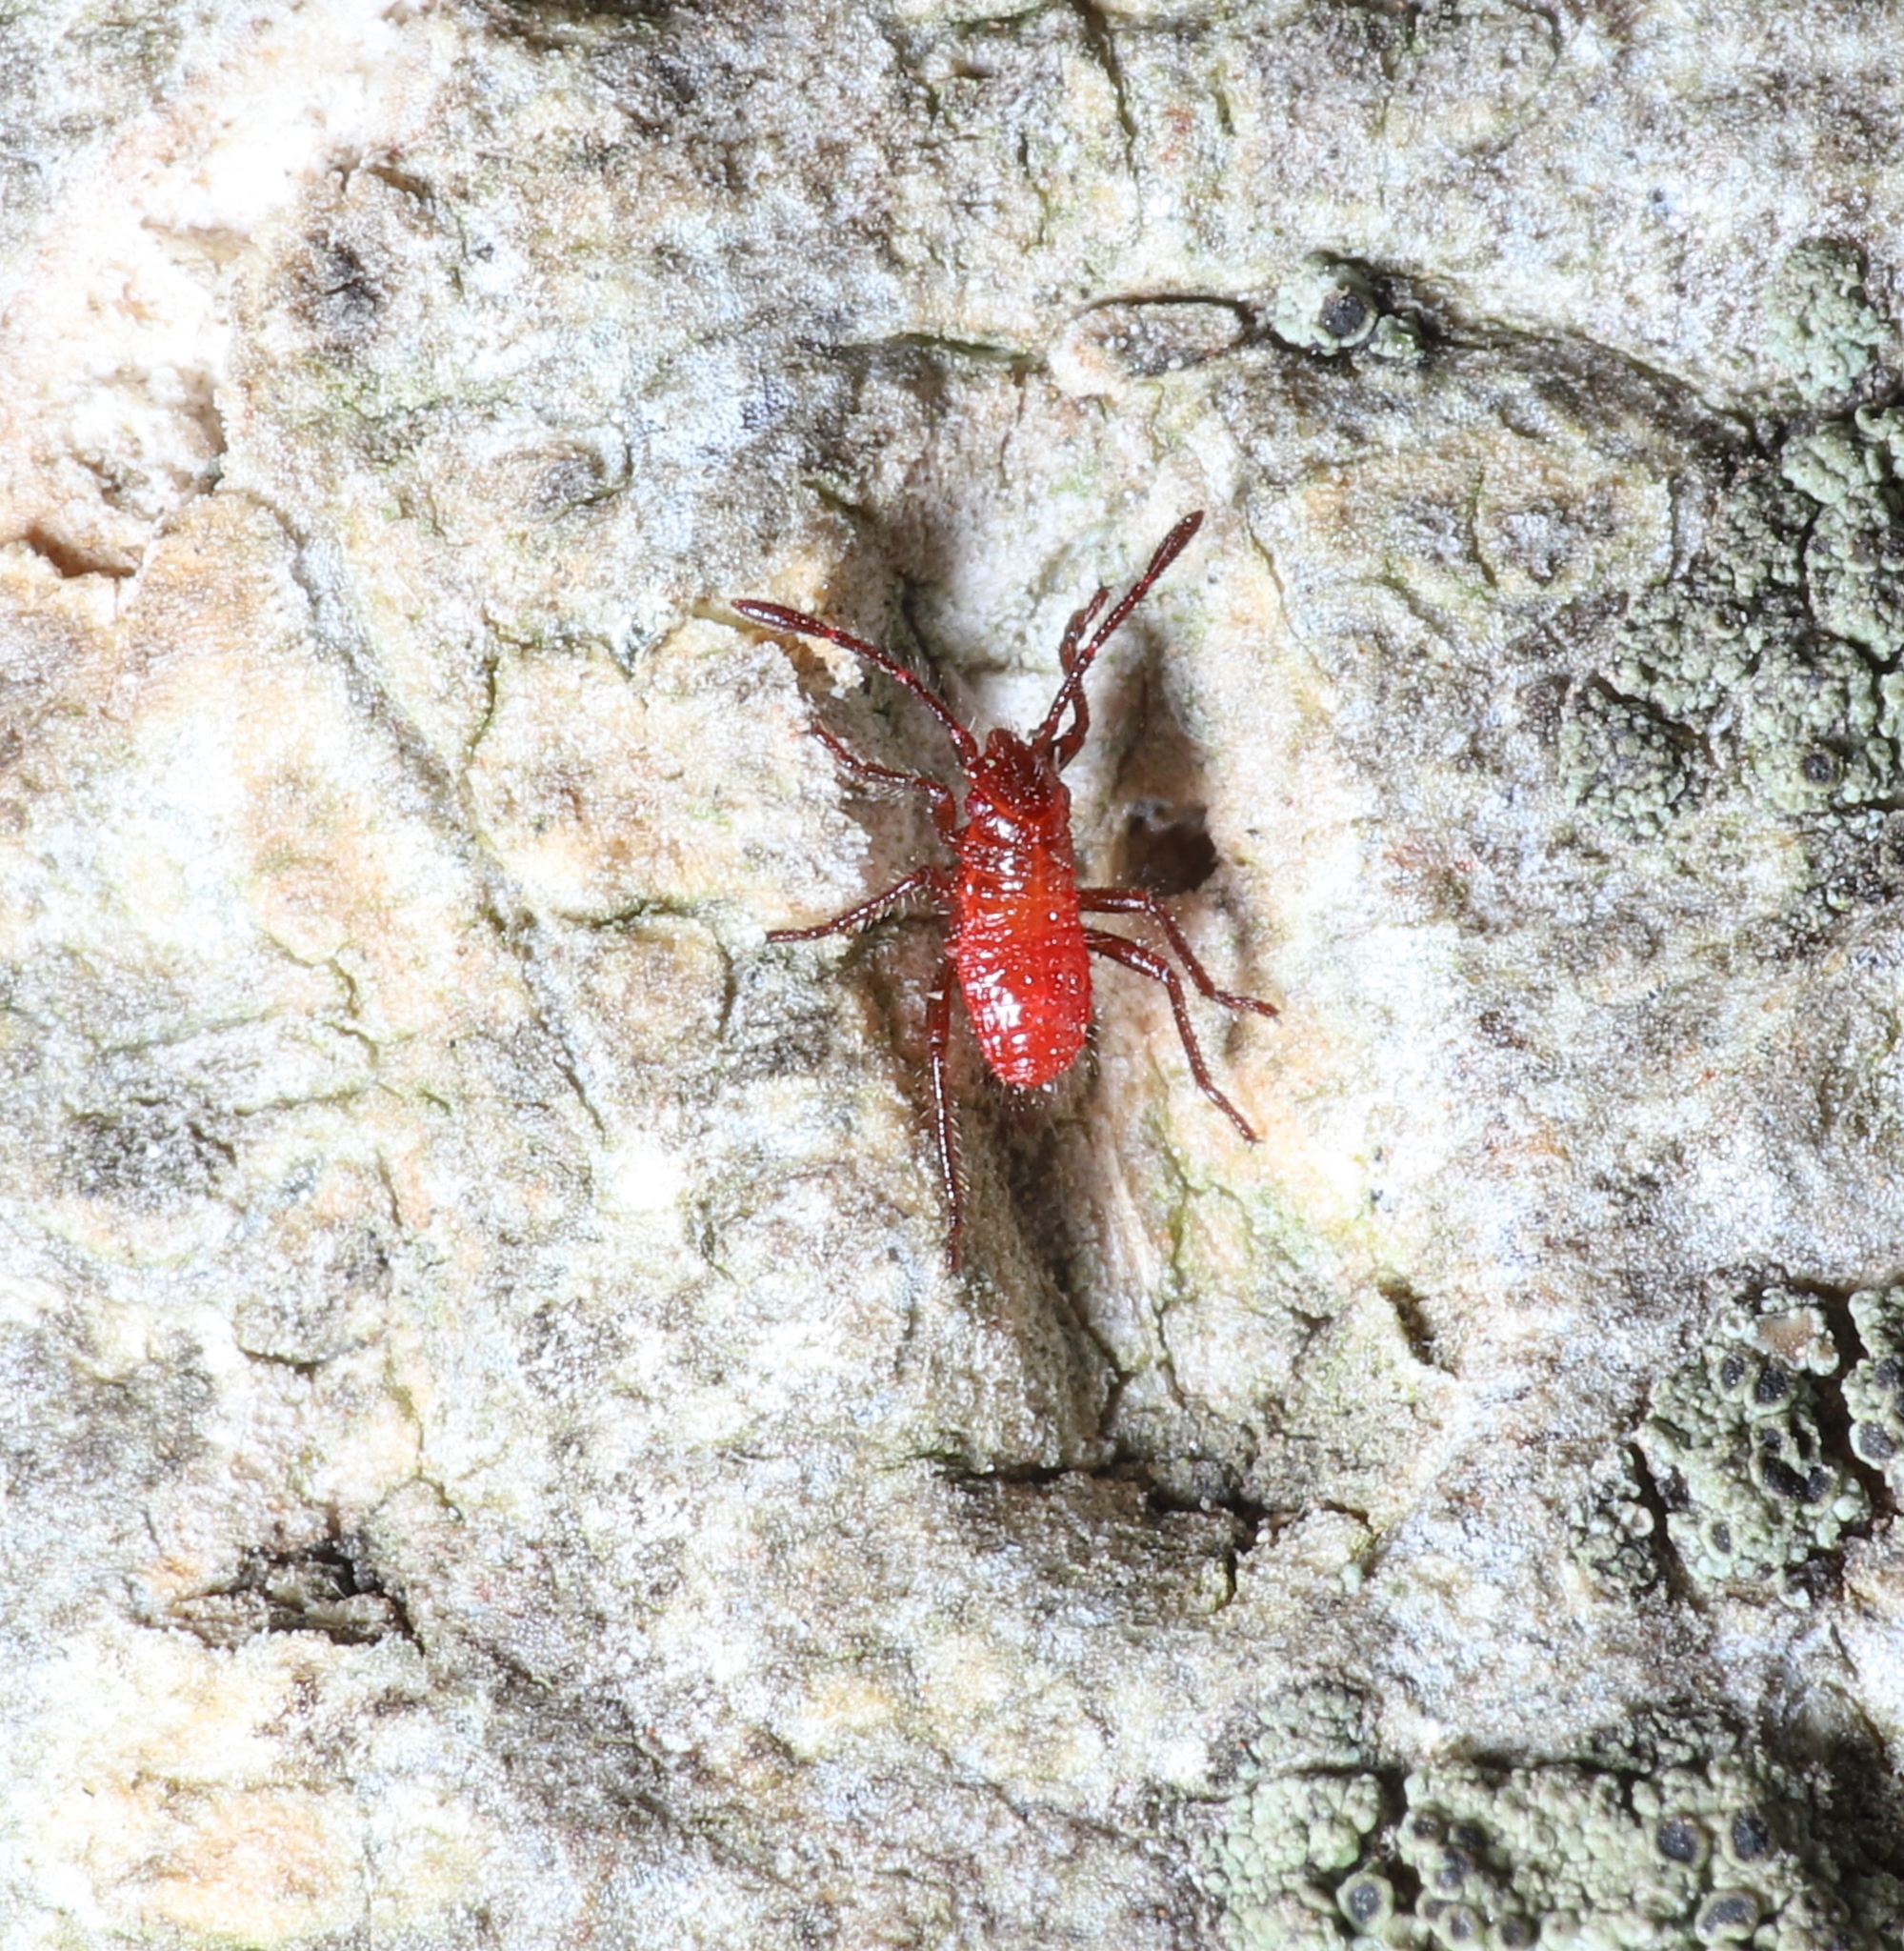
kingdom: Animalia
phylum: Arthropoda
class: Insecta
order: Hemiptera
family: Rhopalidae
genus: Boisea
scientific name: Boisea trivittata
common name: Boxelder bug
